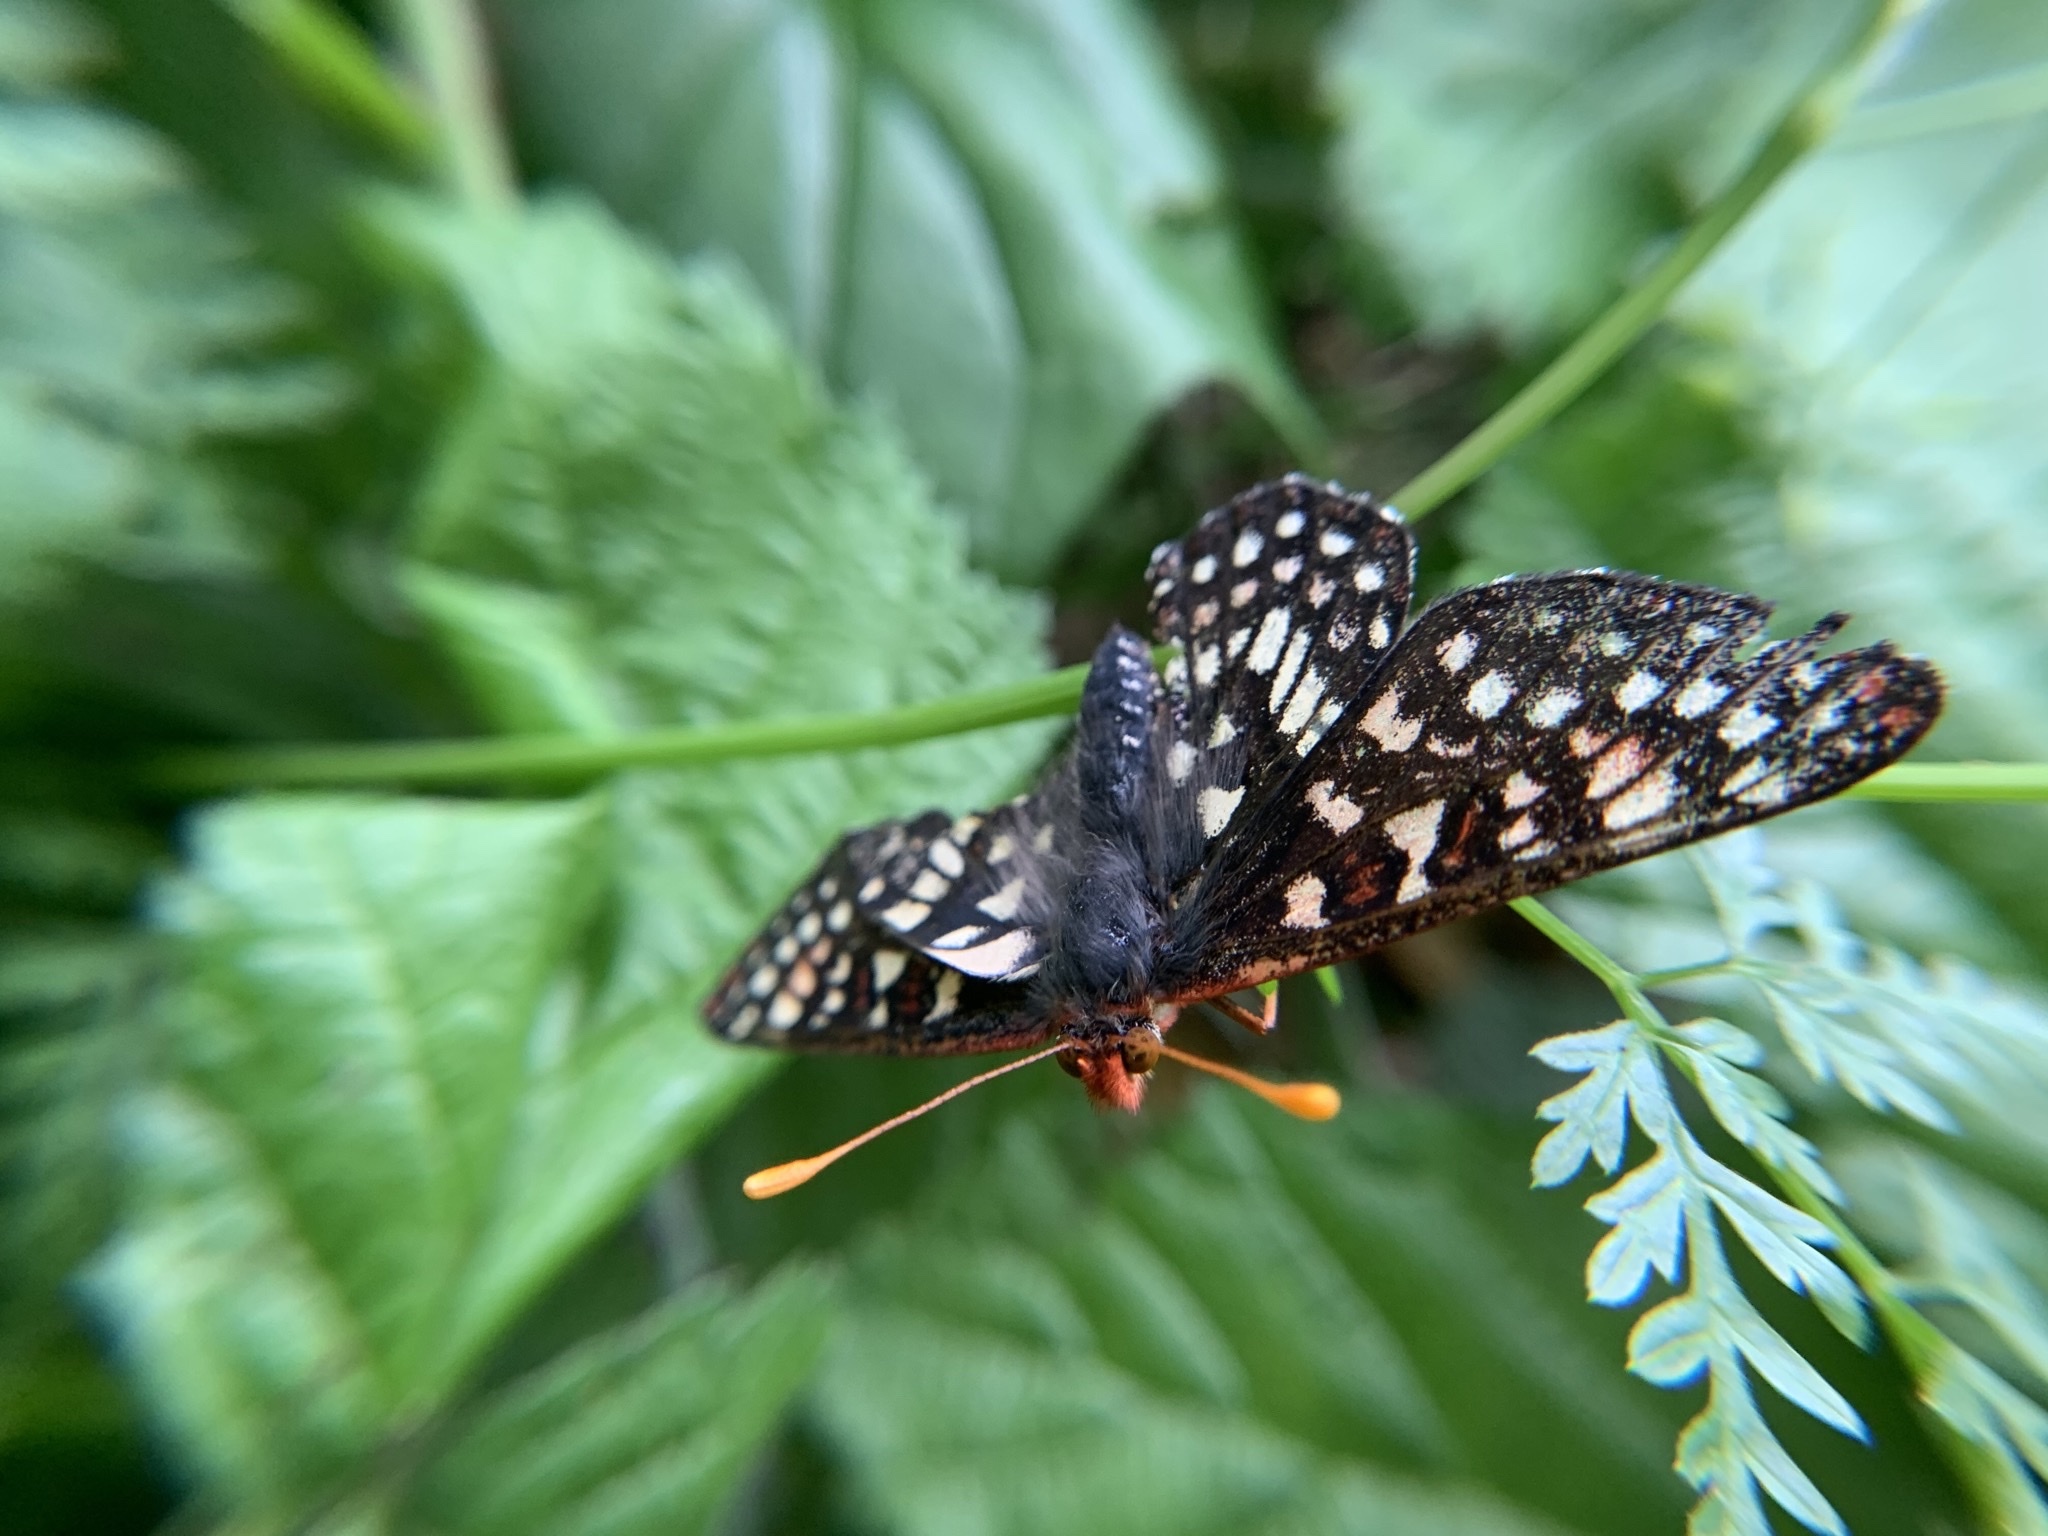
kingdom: Animalia
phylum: Arthropoda
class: Insecta
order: Lepidoptera
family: Nymphalidae
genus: Occidryas
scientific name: Occidryas chalcedona
